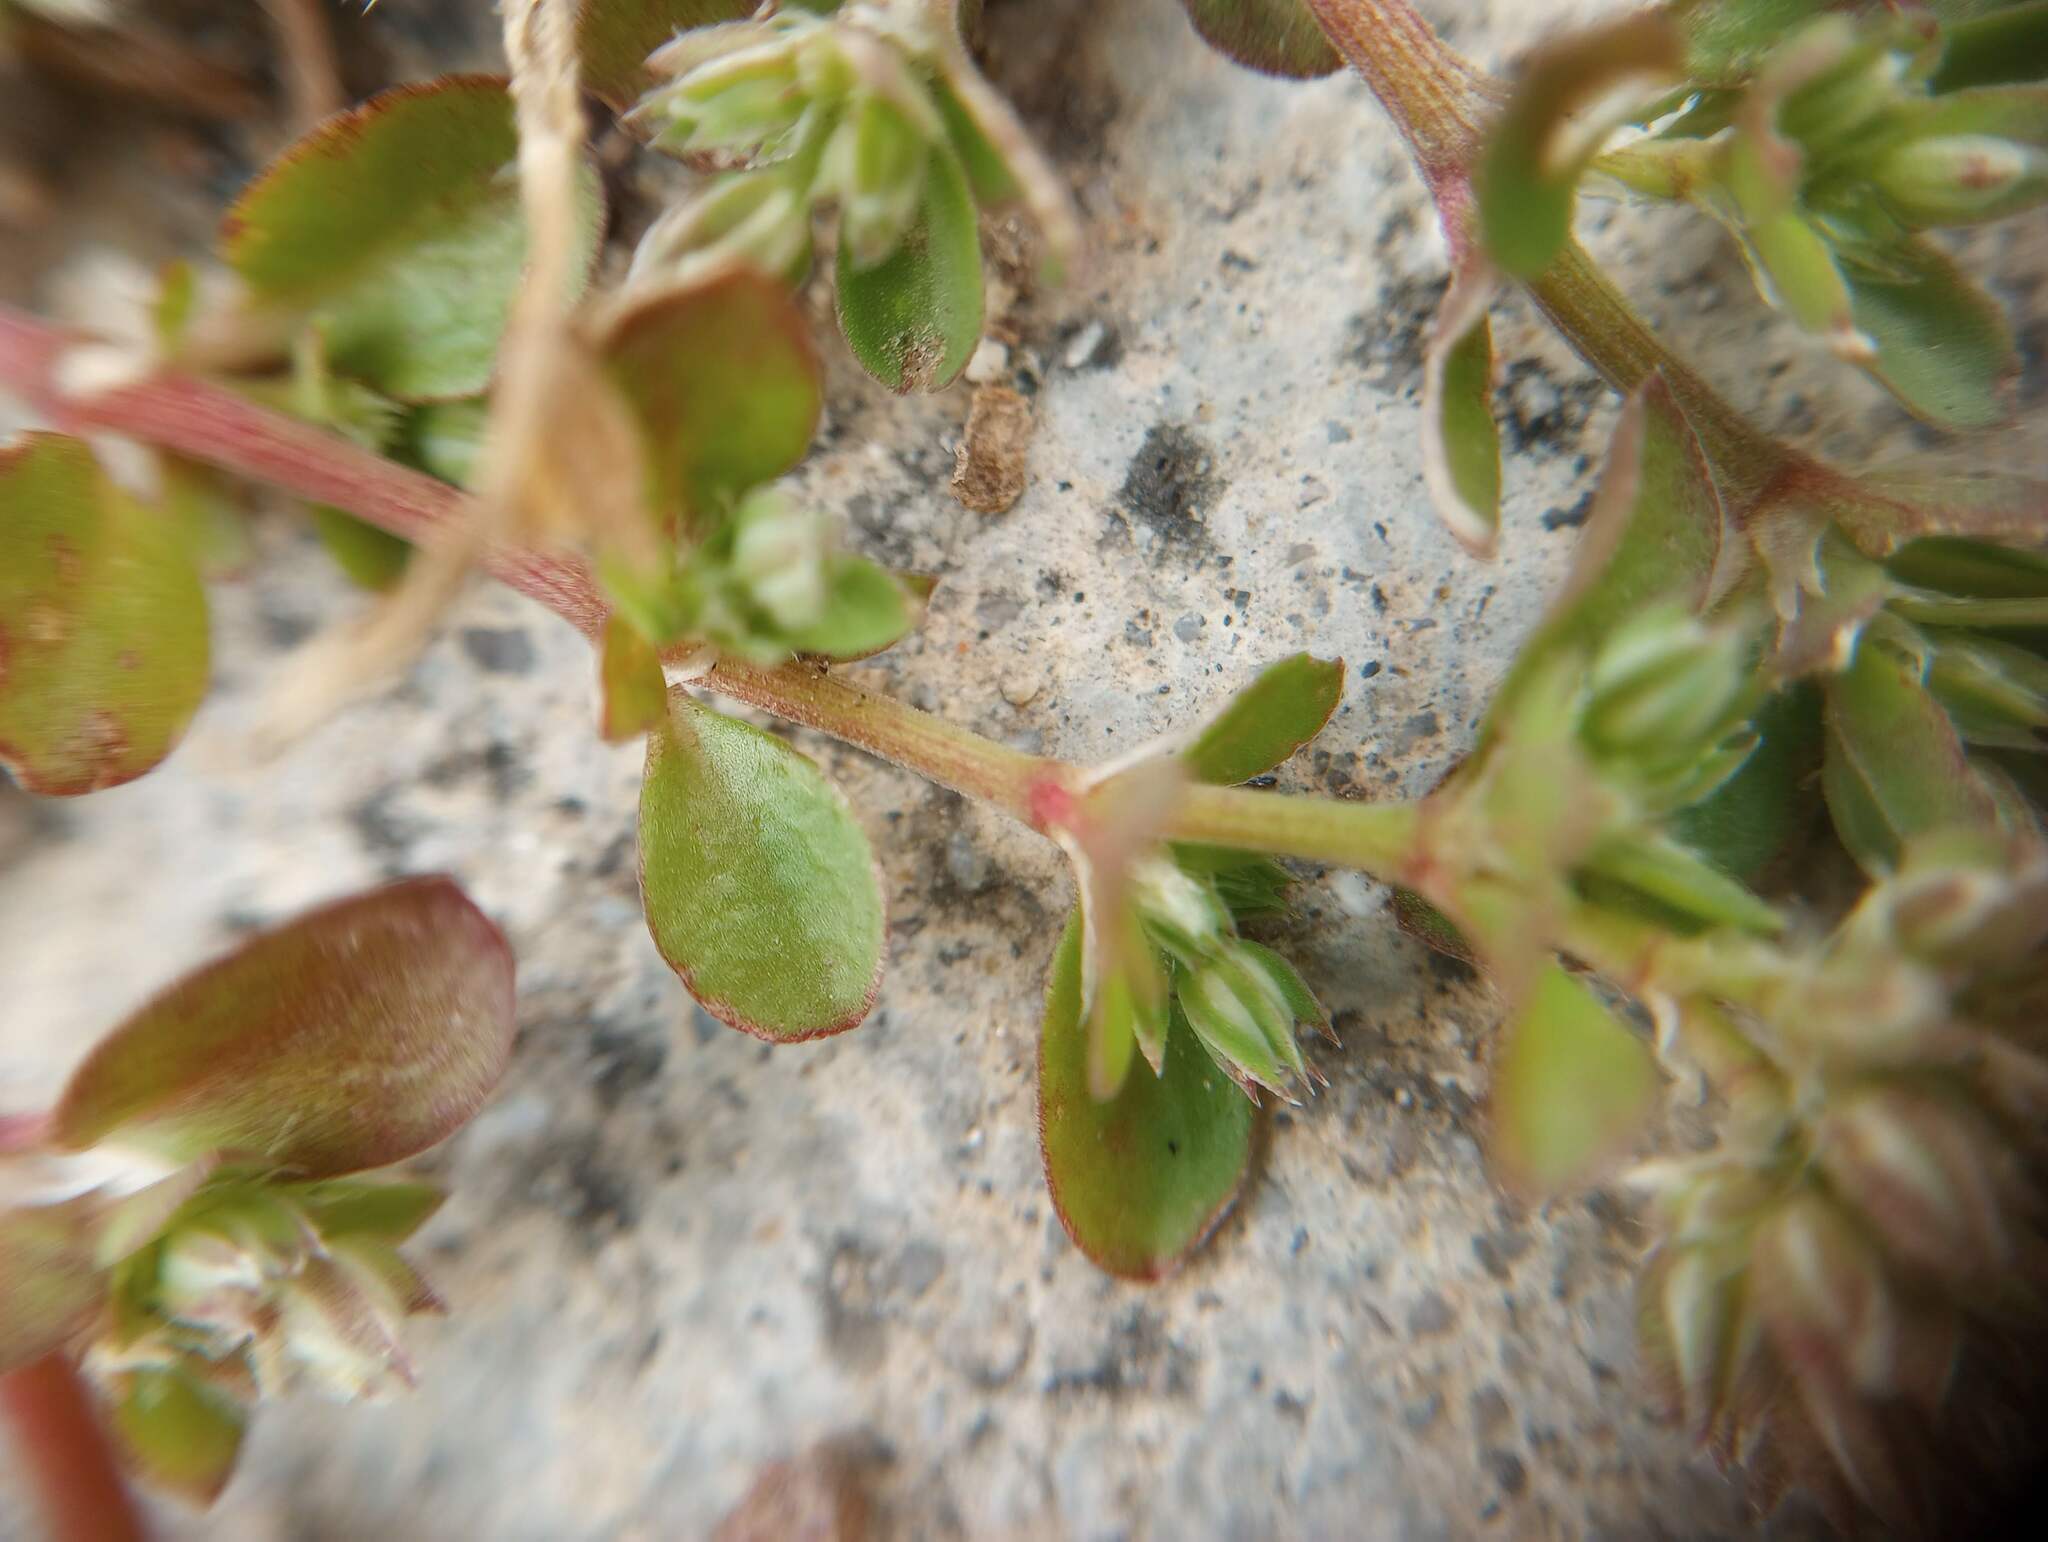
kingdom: Plantae
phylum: Tracheophyta
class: Magnoliopsida
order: Caryophyllales
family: Caryophyllaceae
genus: Polycarpon
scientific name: Polycarpon tetraphyllum
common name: Four-leaved all-seed
